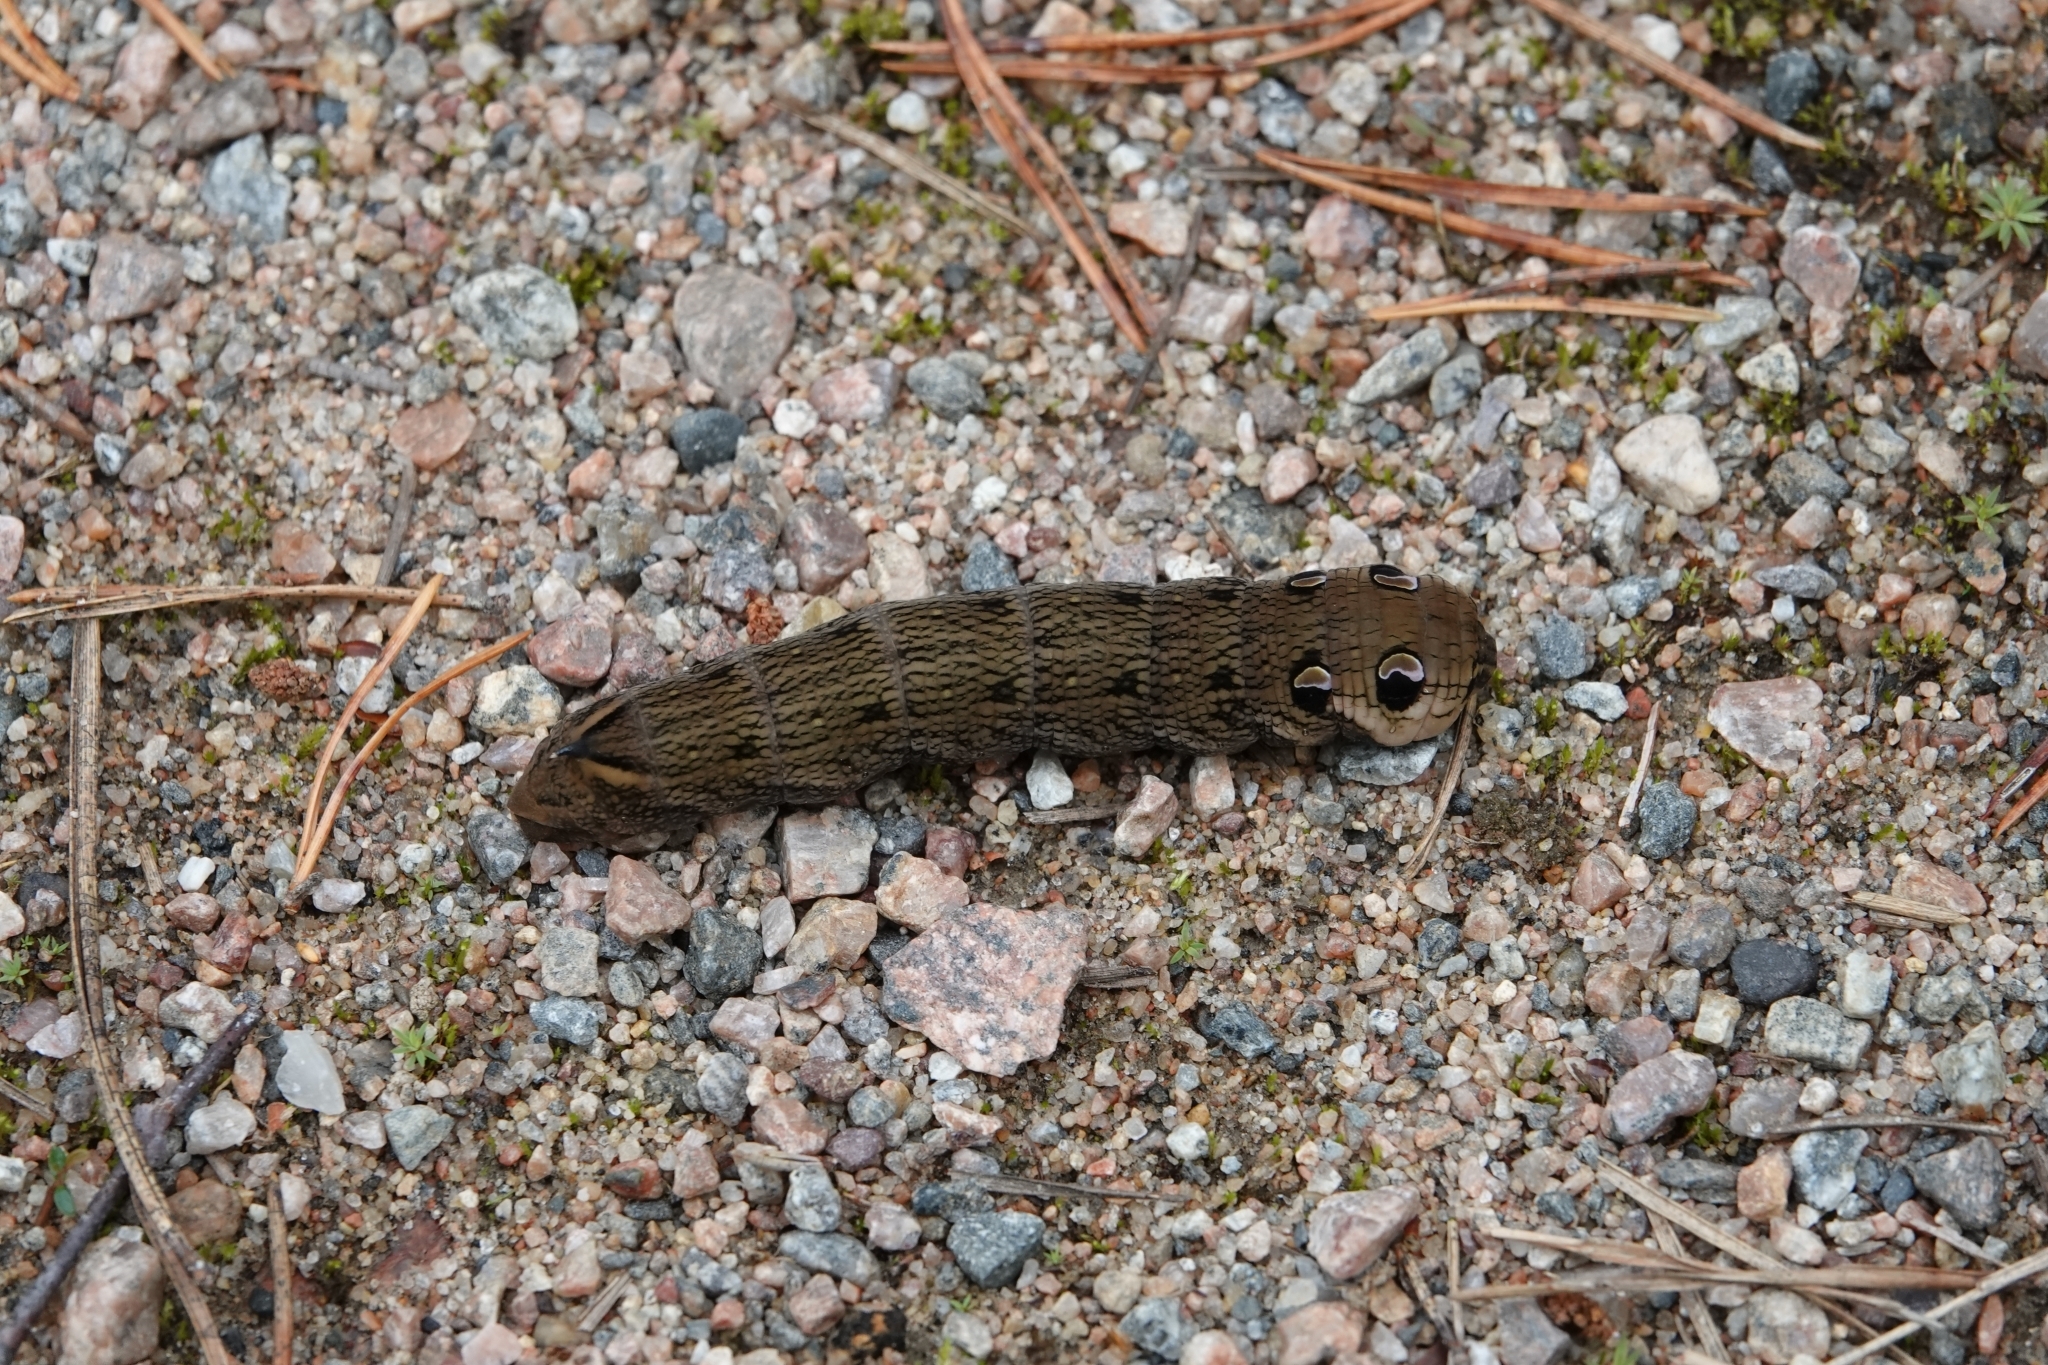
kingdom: Animalia
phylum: Arthropoda
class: Insecta
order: Lepidoptera
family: Sphingidae
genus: Deilephila
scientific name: Deilephila elpenor
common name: Elephant hawk-moth
